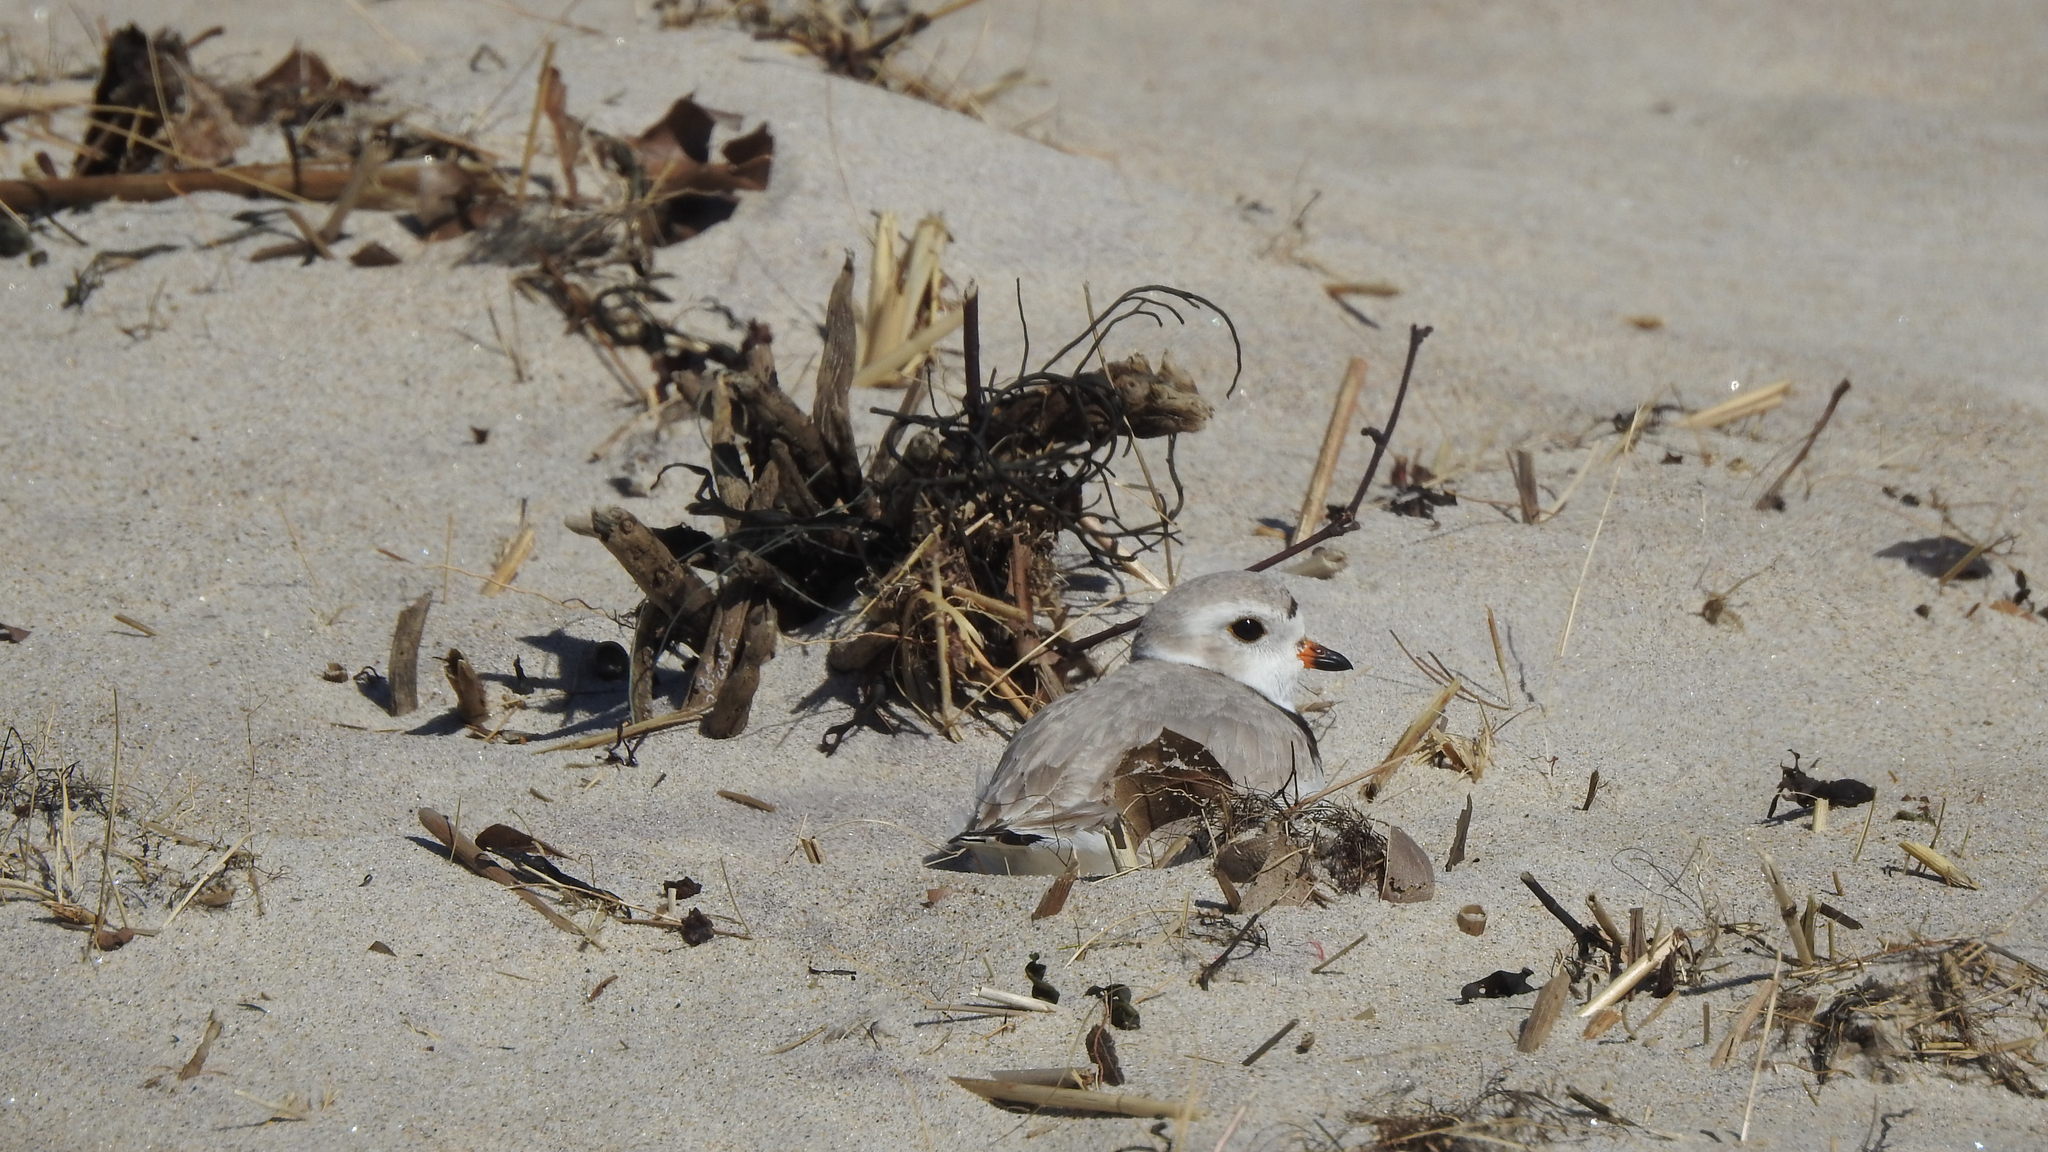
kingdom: Animalia
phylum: Chordata
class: Aves
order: Charadriiformes
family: Charadriidae
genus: Charadrius
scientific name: Charadrius melodus
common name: Piping plover
